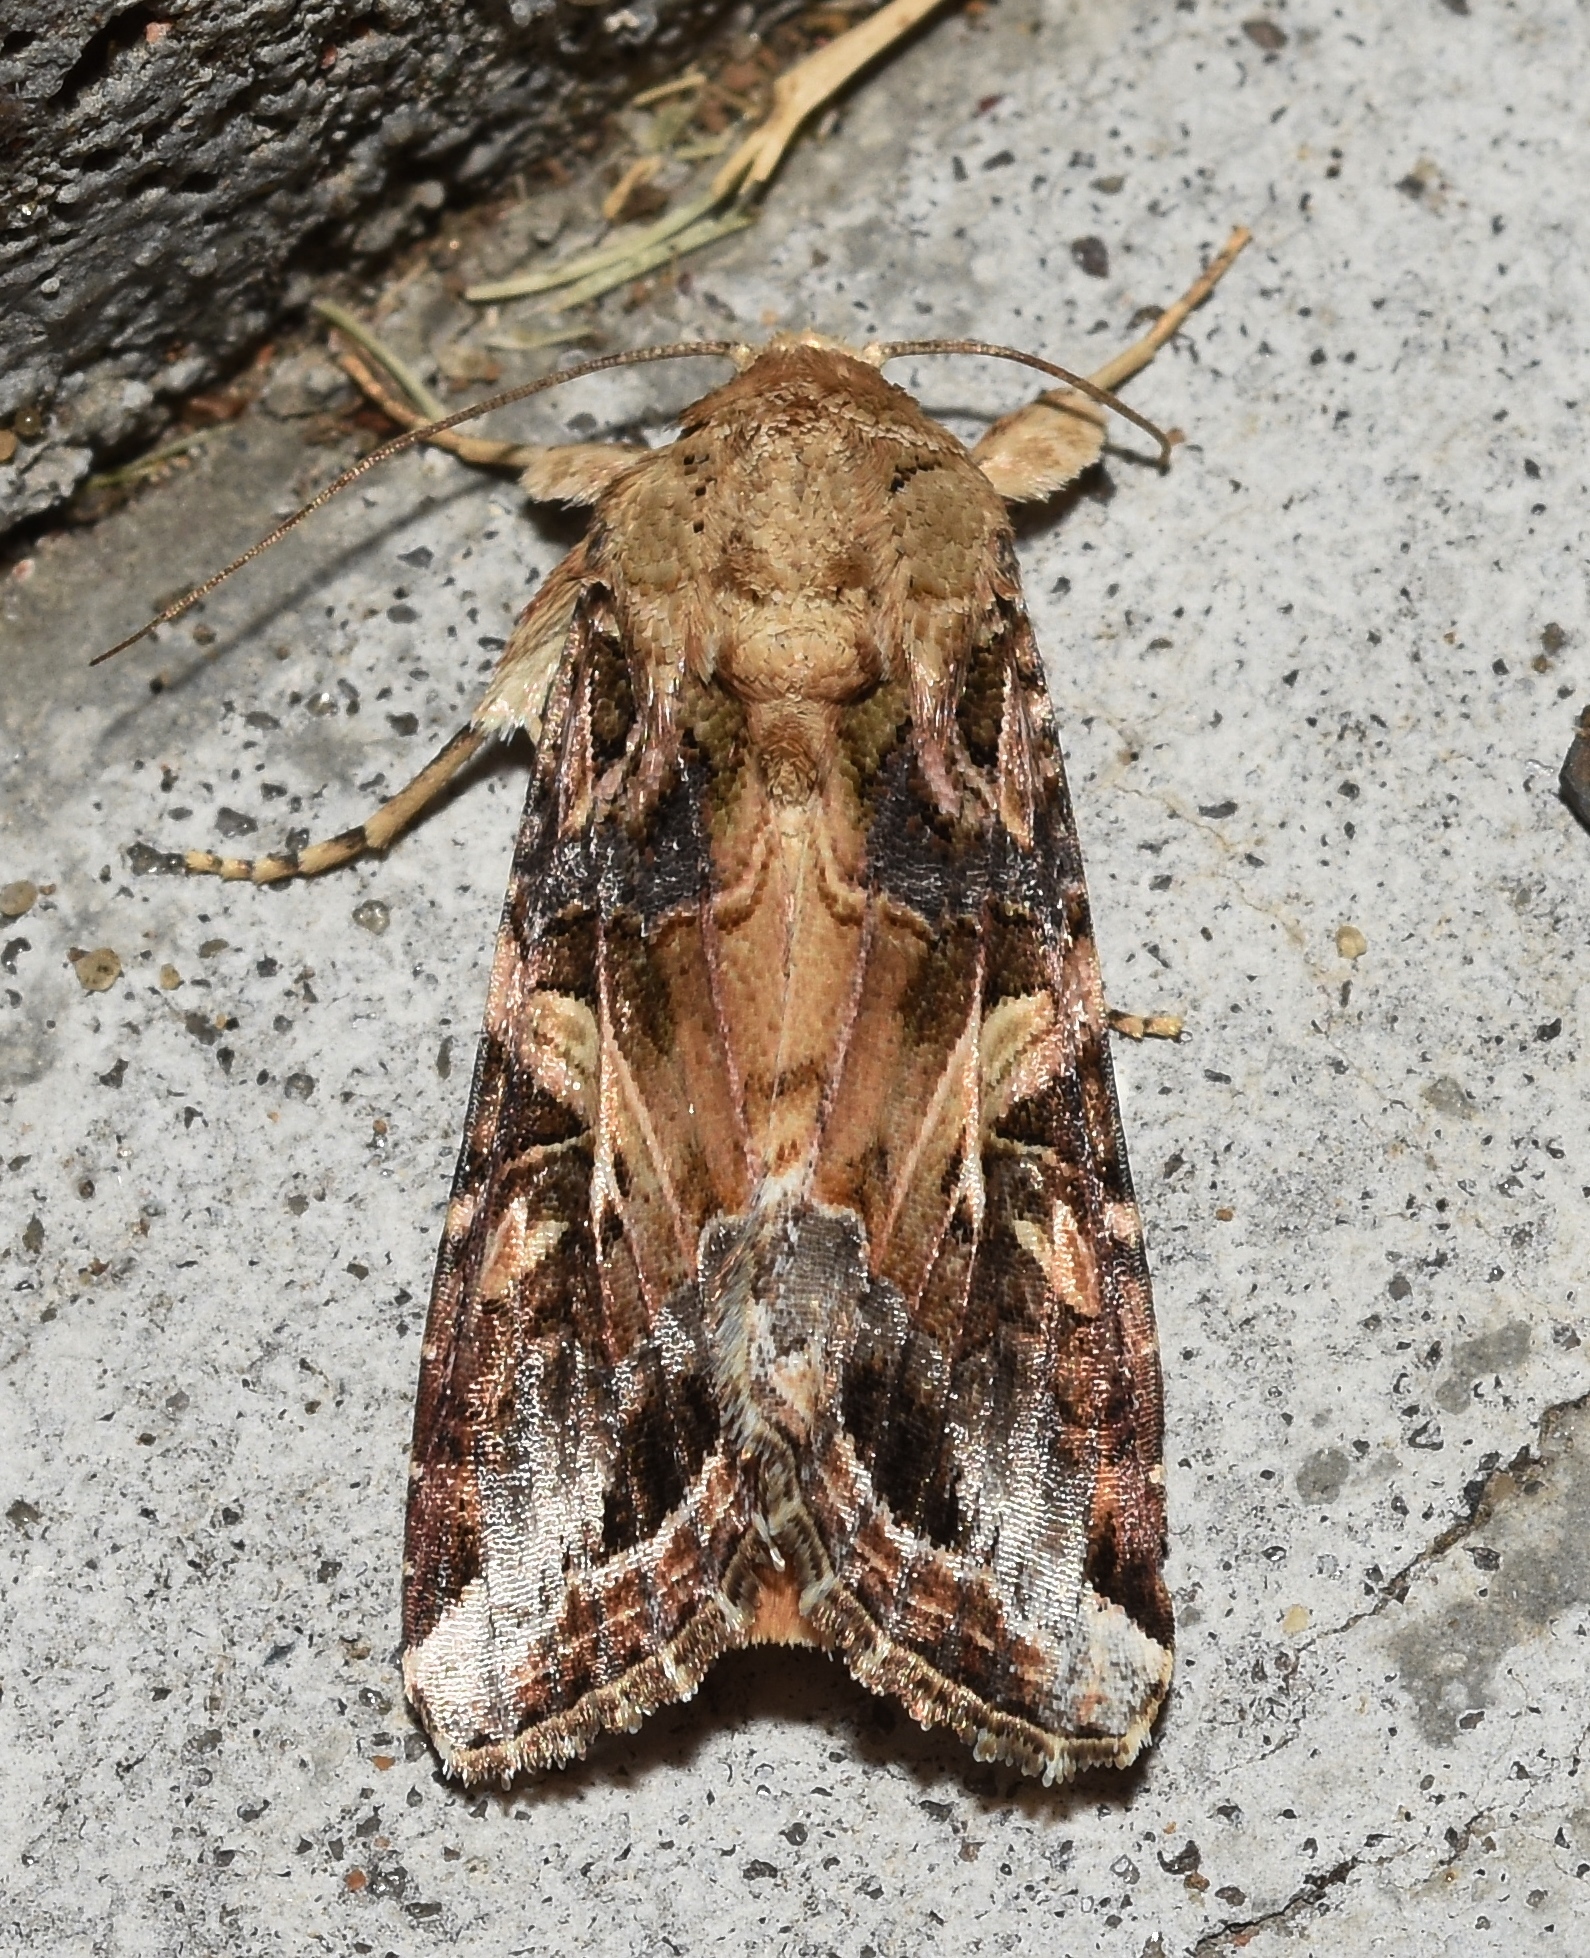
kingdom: Animalia
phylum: Arthropoda
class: Insecta
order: Lepidoptera
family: Noctuidae
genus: Spodoptera
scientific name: Spodoptera ornithogalli
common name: Yellow-striped armyworm
